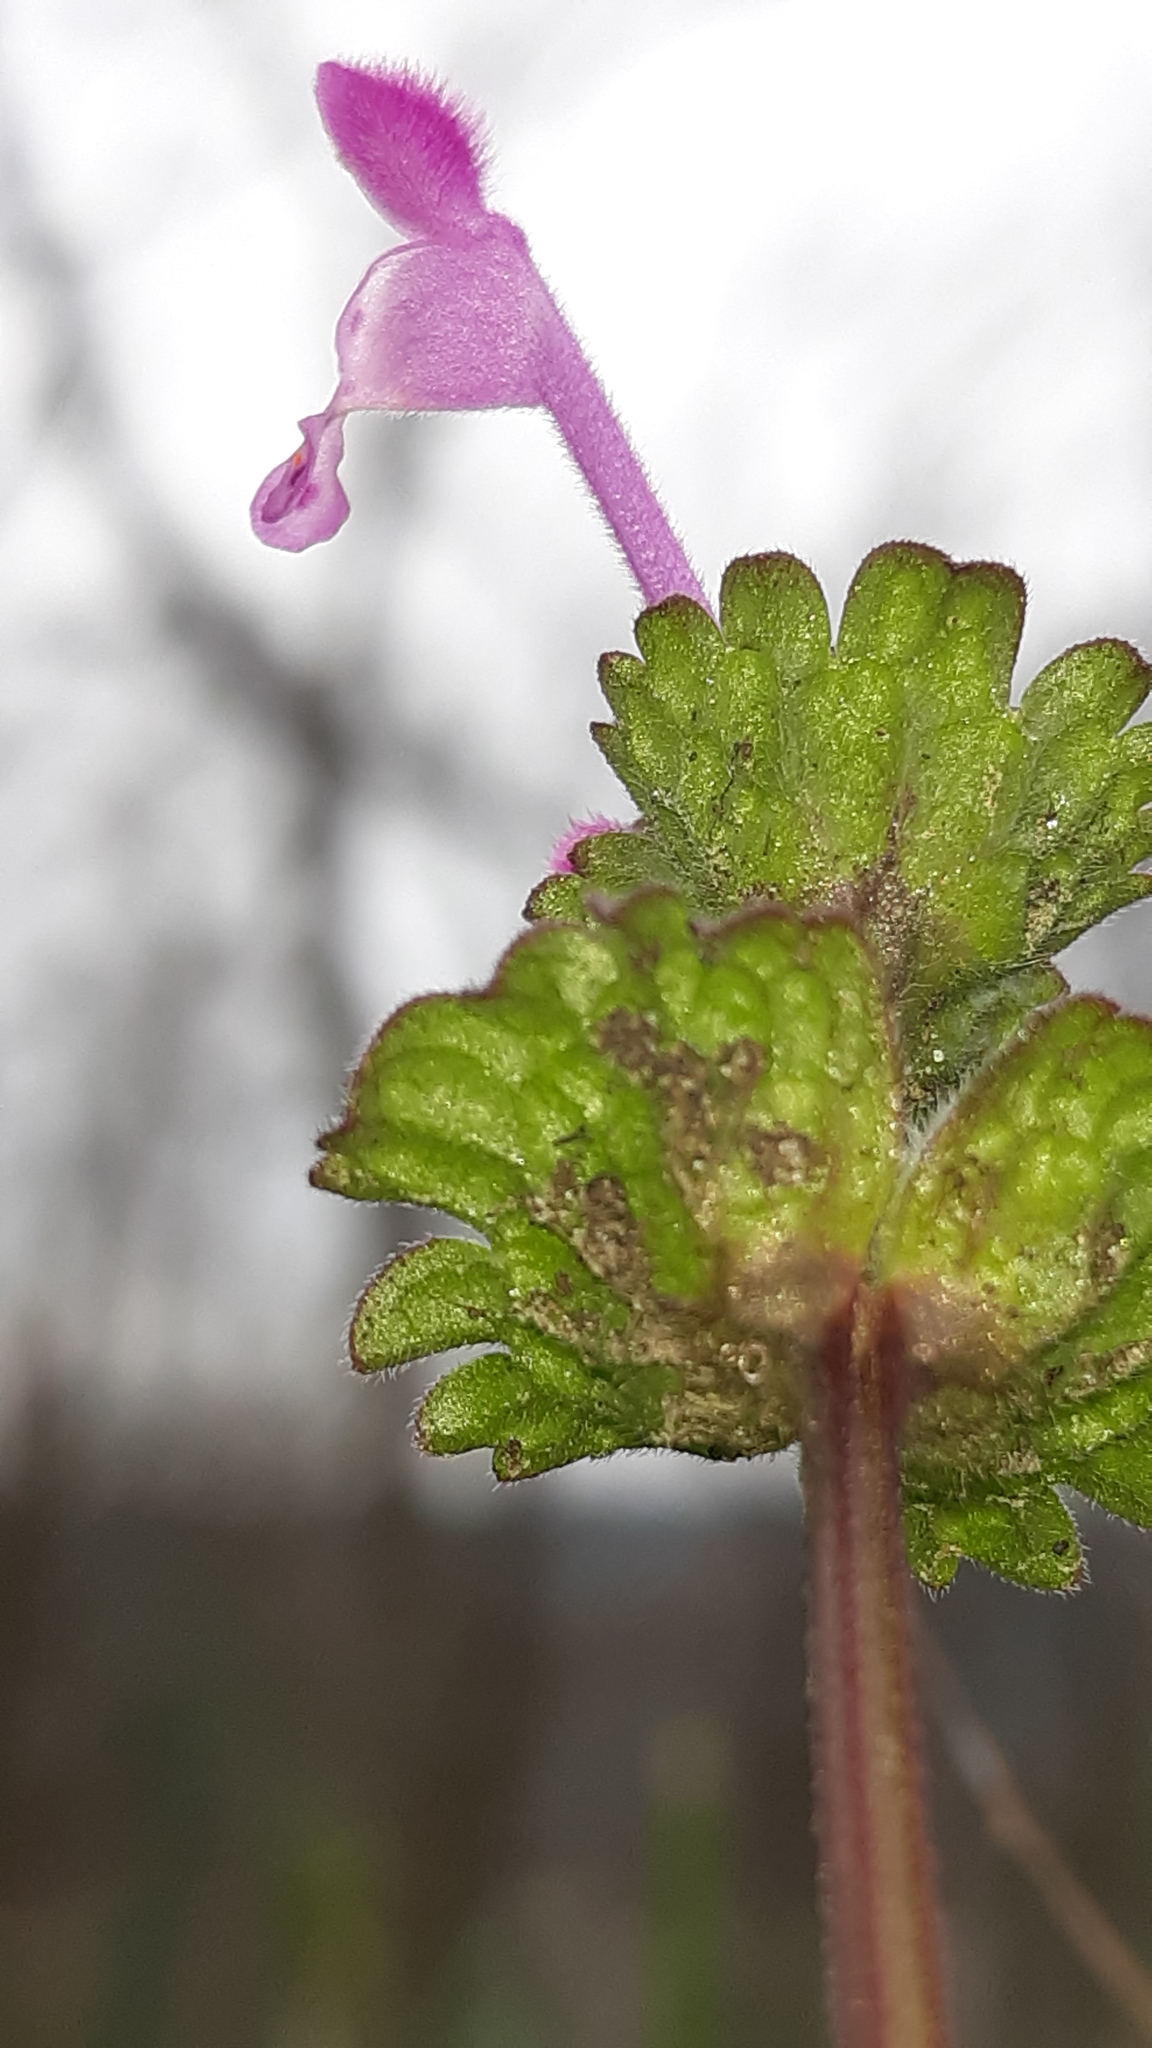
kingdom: Plantae
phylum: Tracheophyta
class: Magnoliopsida
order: Lamiales
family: Lamiaceae
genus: Lamium
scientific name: Lamium amplexicaule
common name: Henbit dead-nettle
